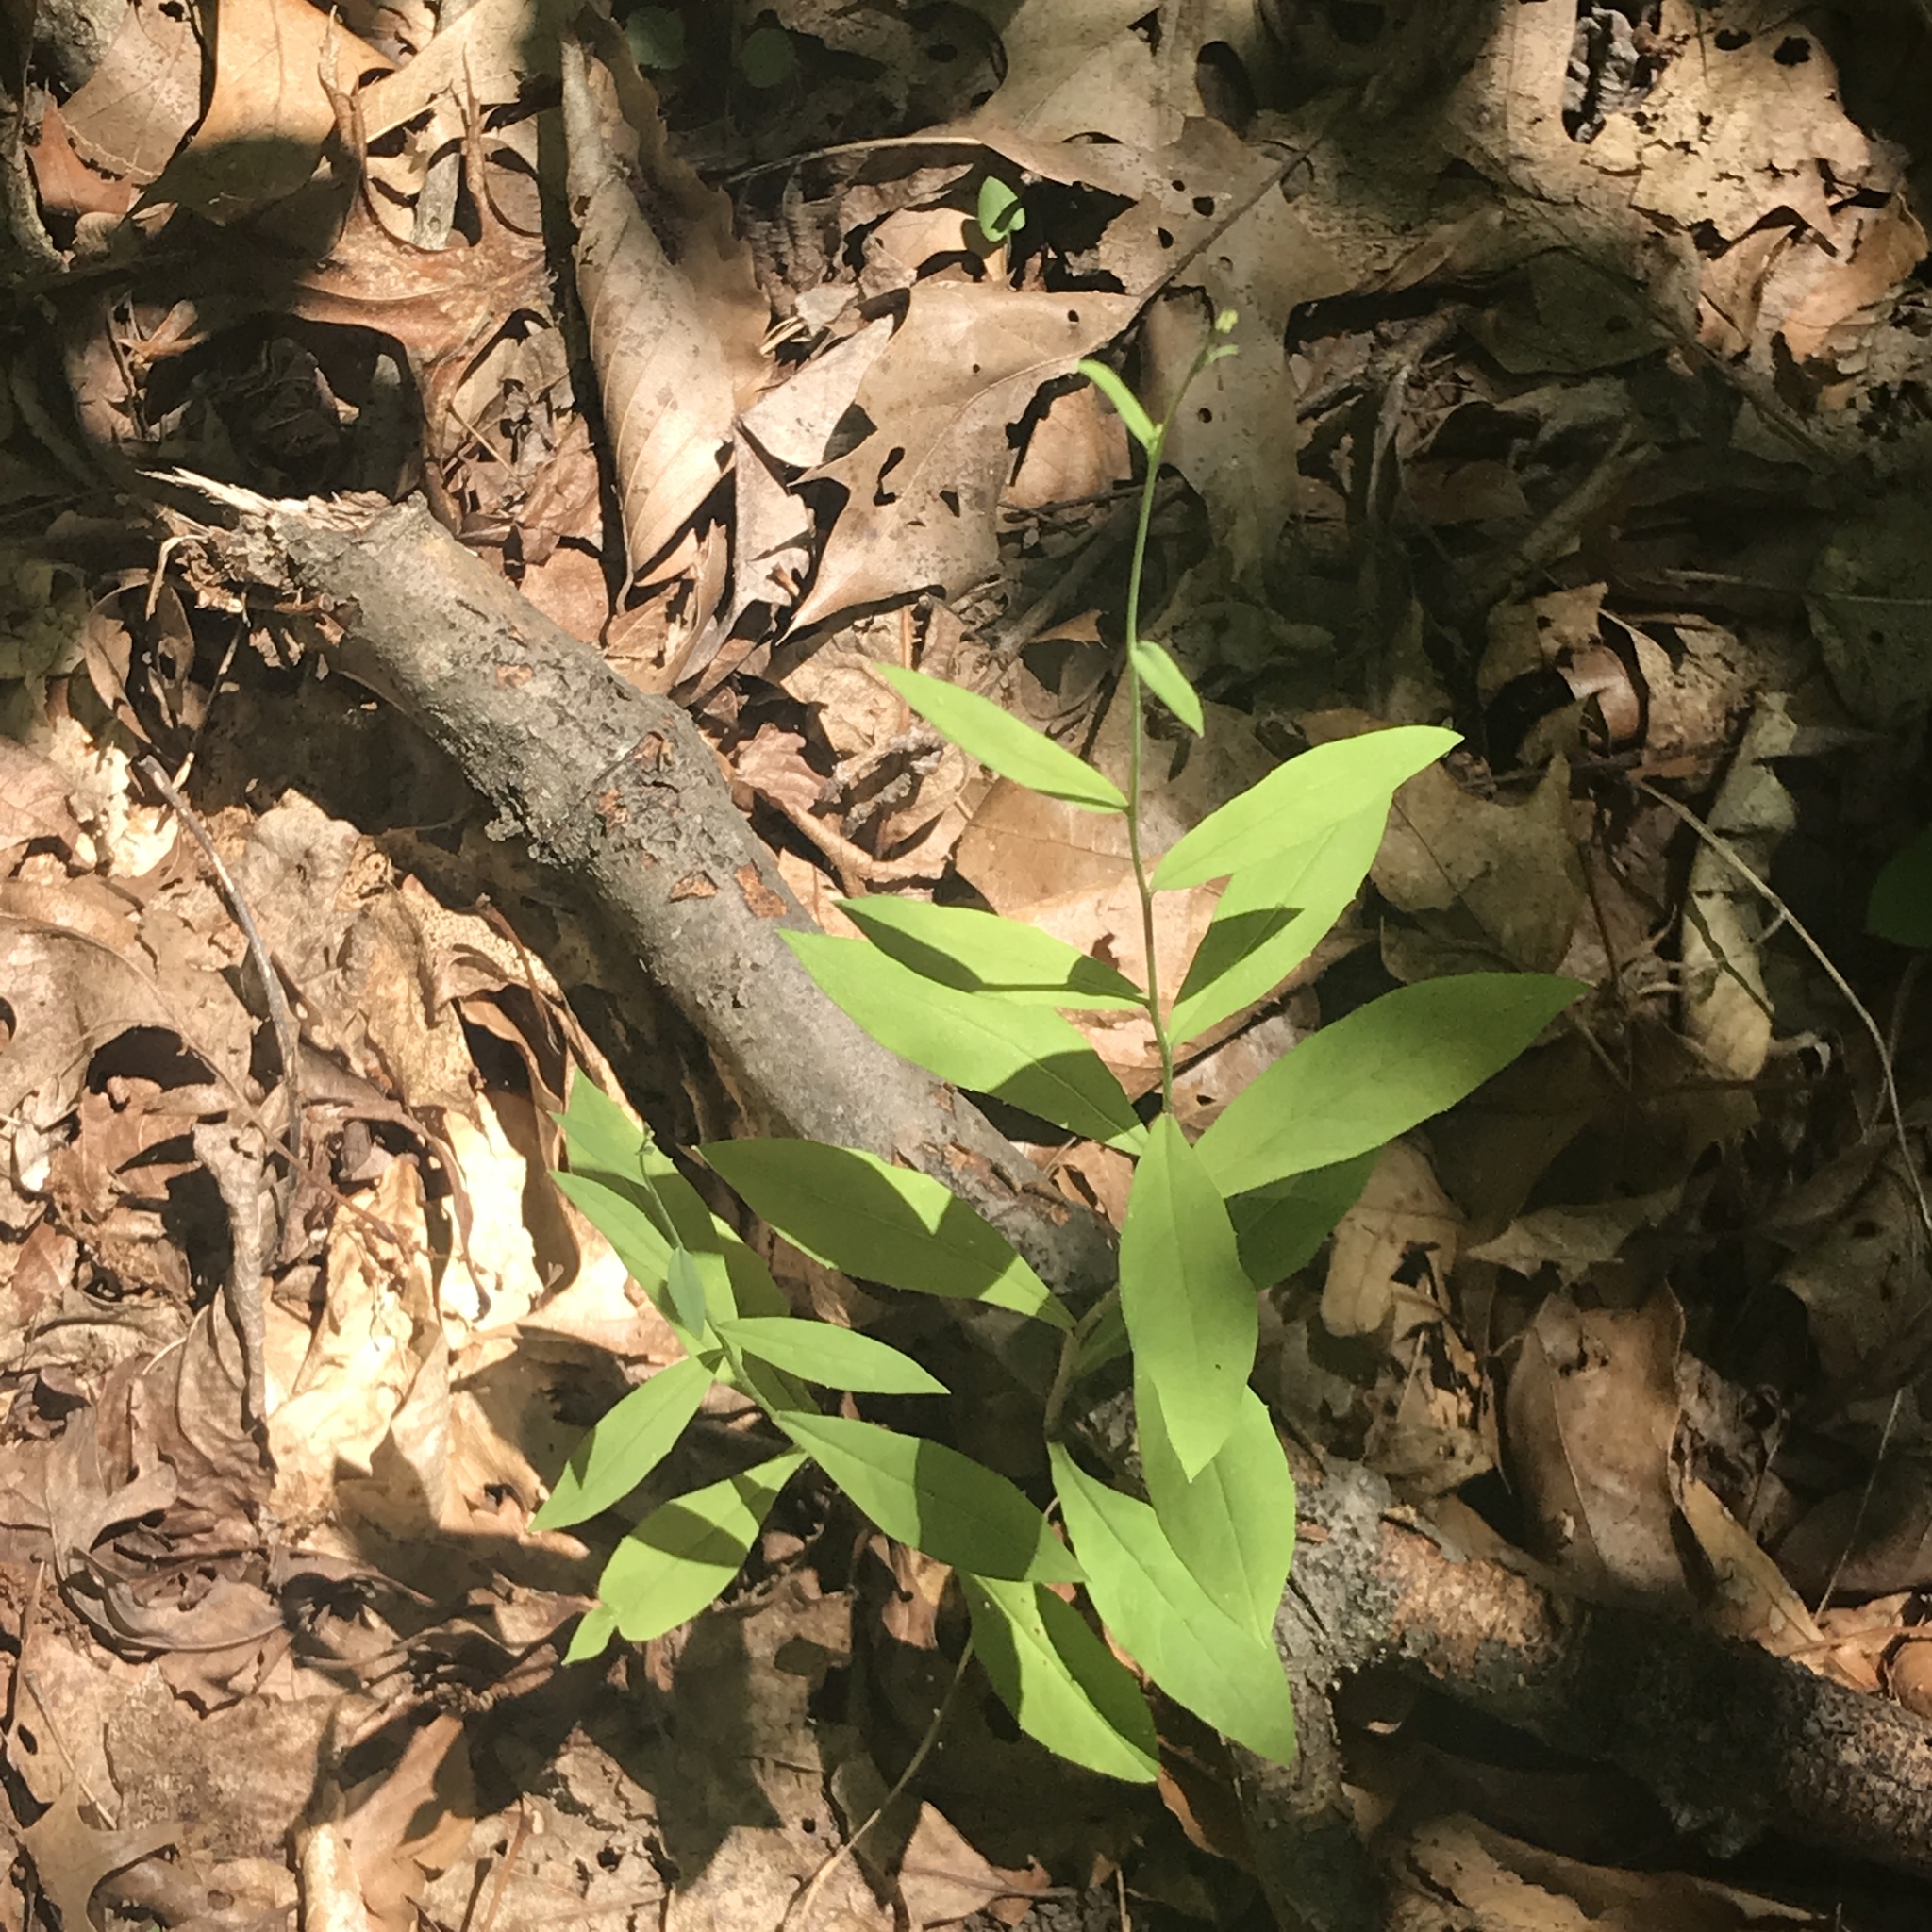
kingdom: Plantae
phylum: Tracheophyta
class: Magnoliopsida
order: Asterales
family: Asteraceae
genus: Hieracium
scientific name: Hieracium paniculatum
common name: Allegheny hawkweed
